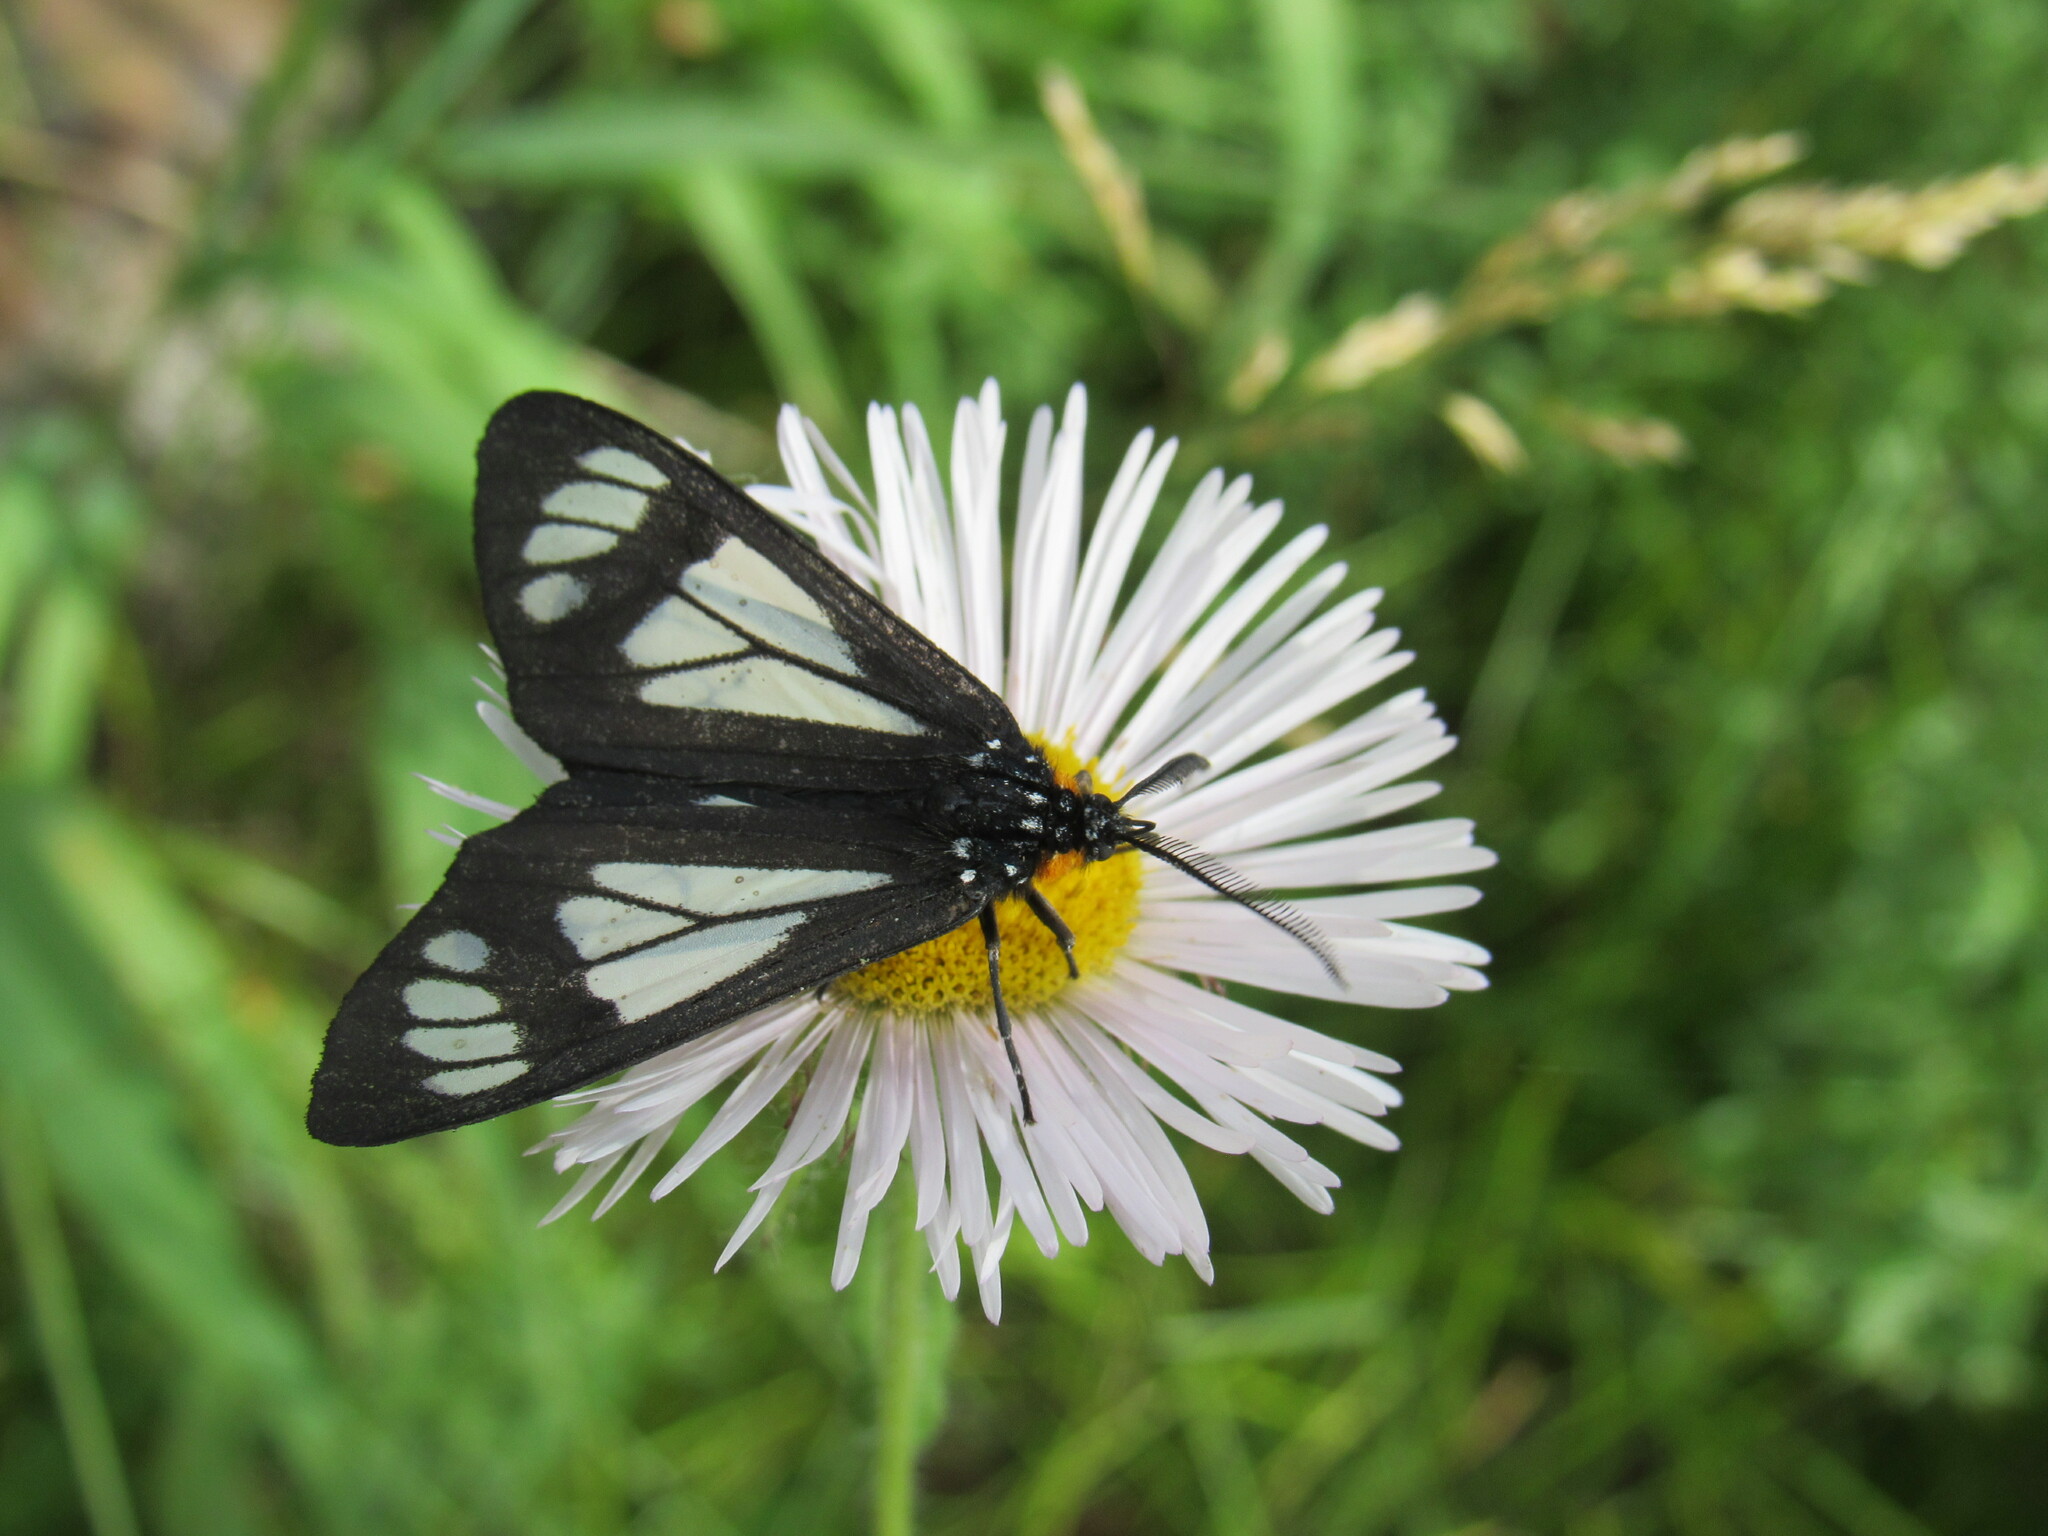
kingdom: Animalia
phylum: Arthropoda
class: Insecta
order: Lepidoptera
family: Erebidae
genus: Gnophaela
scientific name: Gnophaela vermiculata
